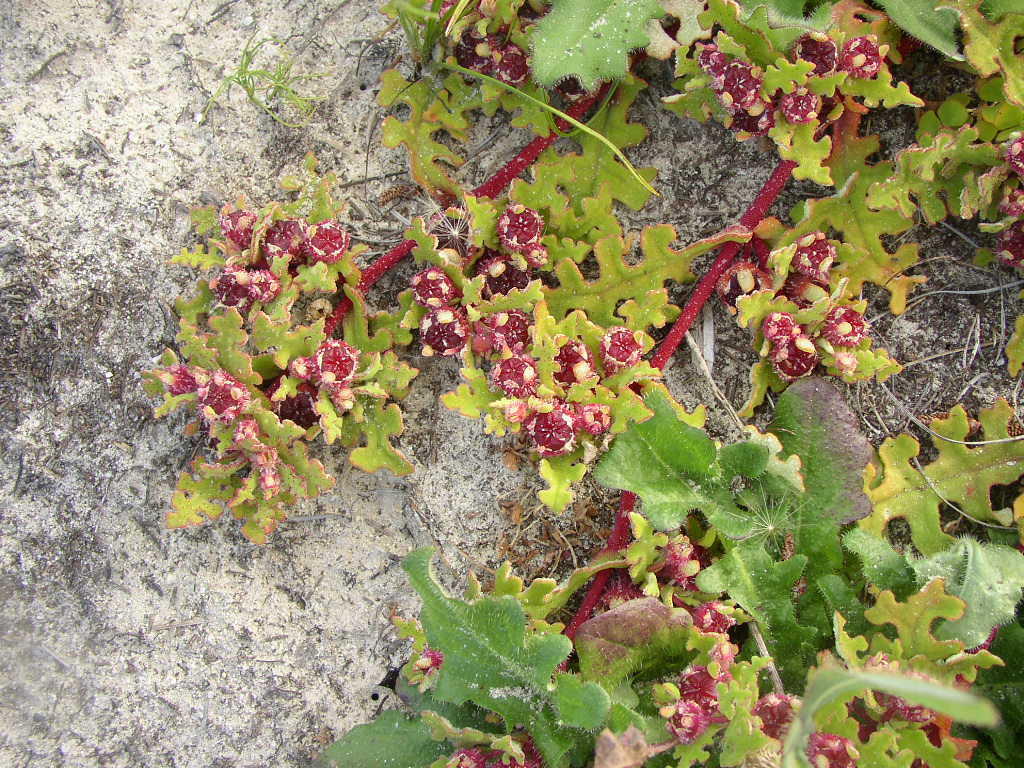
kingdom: Plantae
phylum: Tracheophyta
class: Magnoliopsida
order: Caryophyllales
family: Aizoaceae
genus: Cleretum
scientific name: Cleretum herrei
